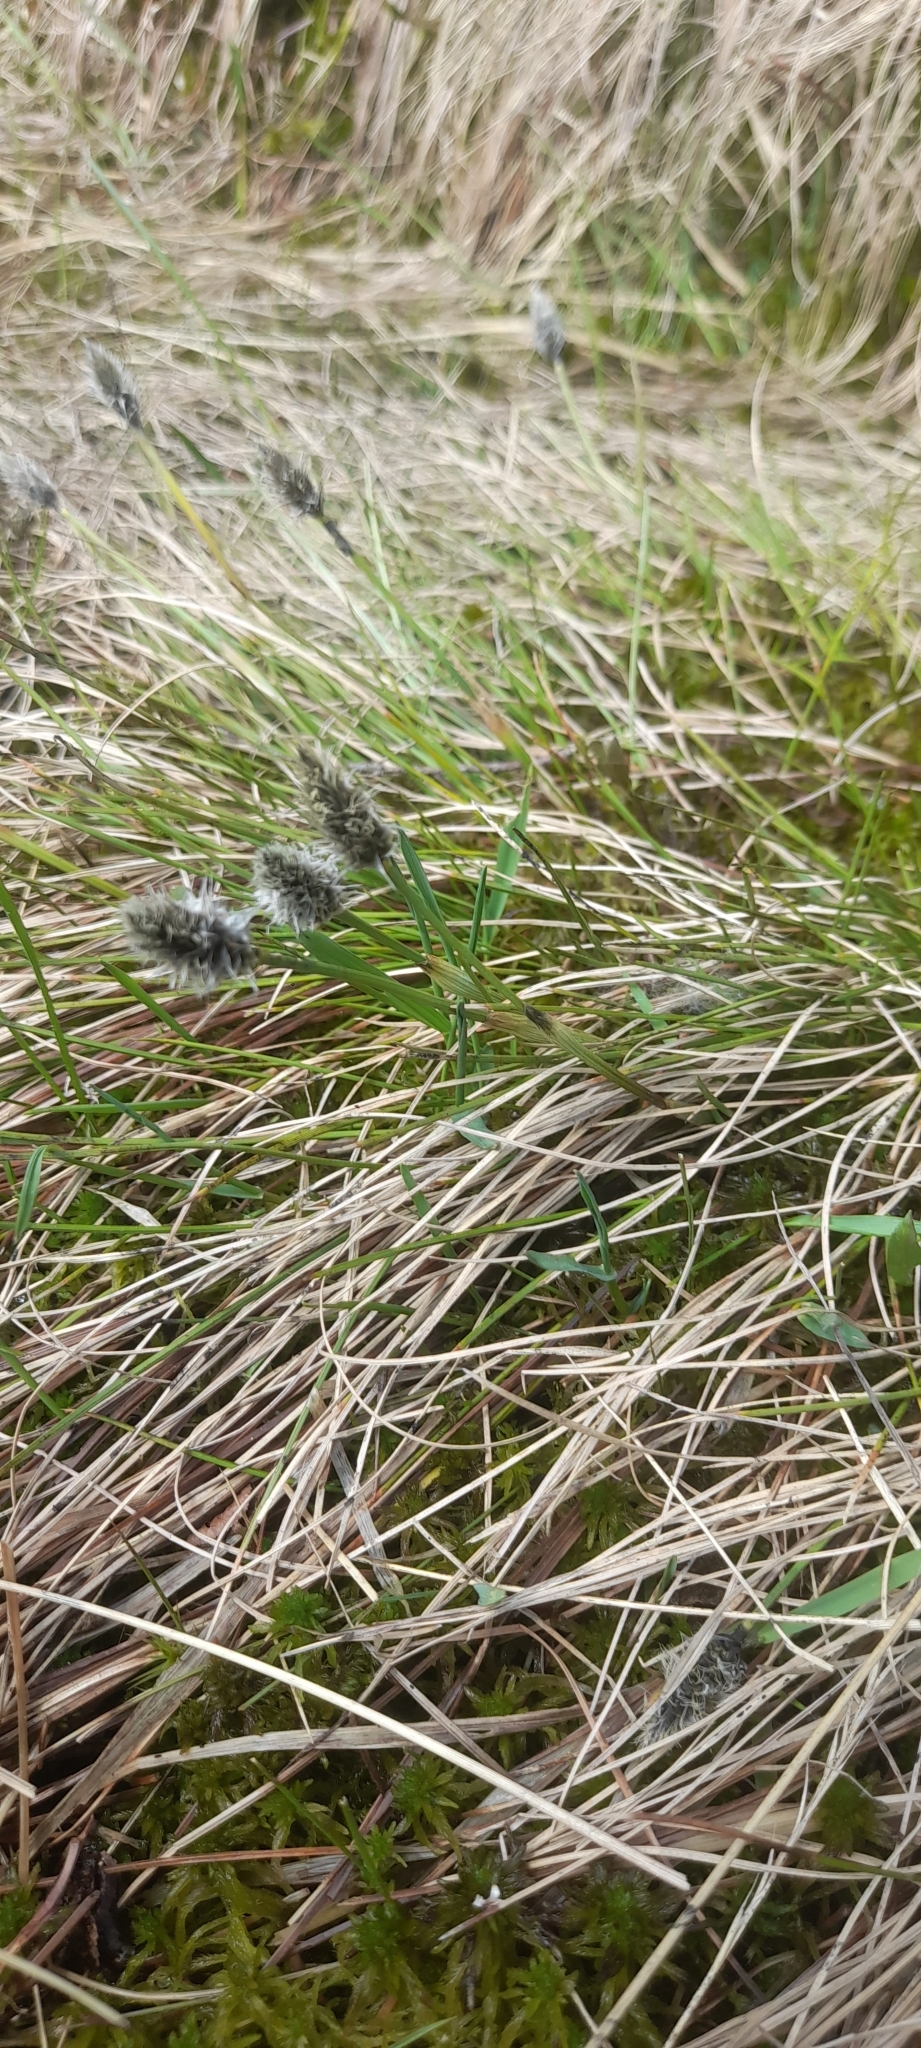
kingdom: Plantae
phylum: Tracheophyta
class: Liliopsida
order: Poales
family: Cyperaceae
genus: Eriophorum
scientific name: Eriophorum vaginatum
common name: Hare's-tail cottongrass
